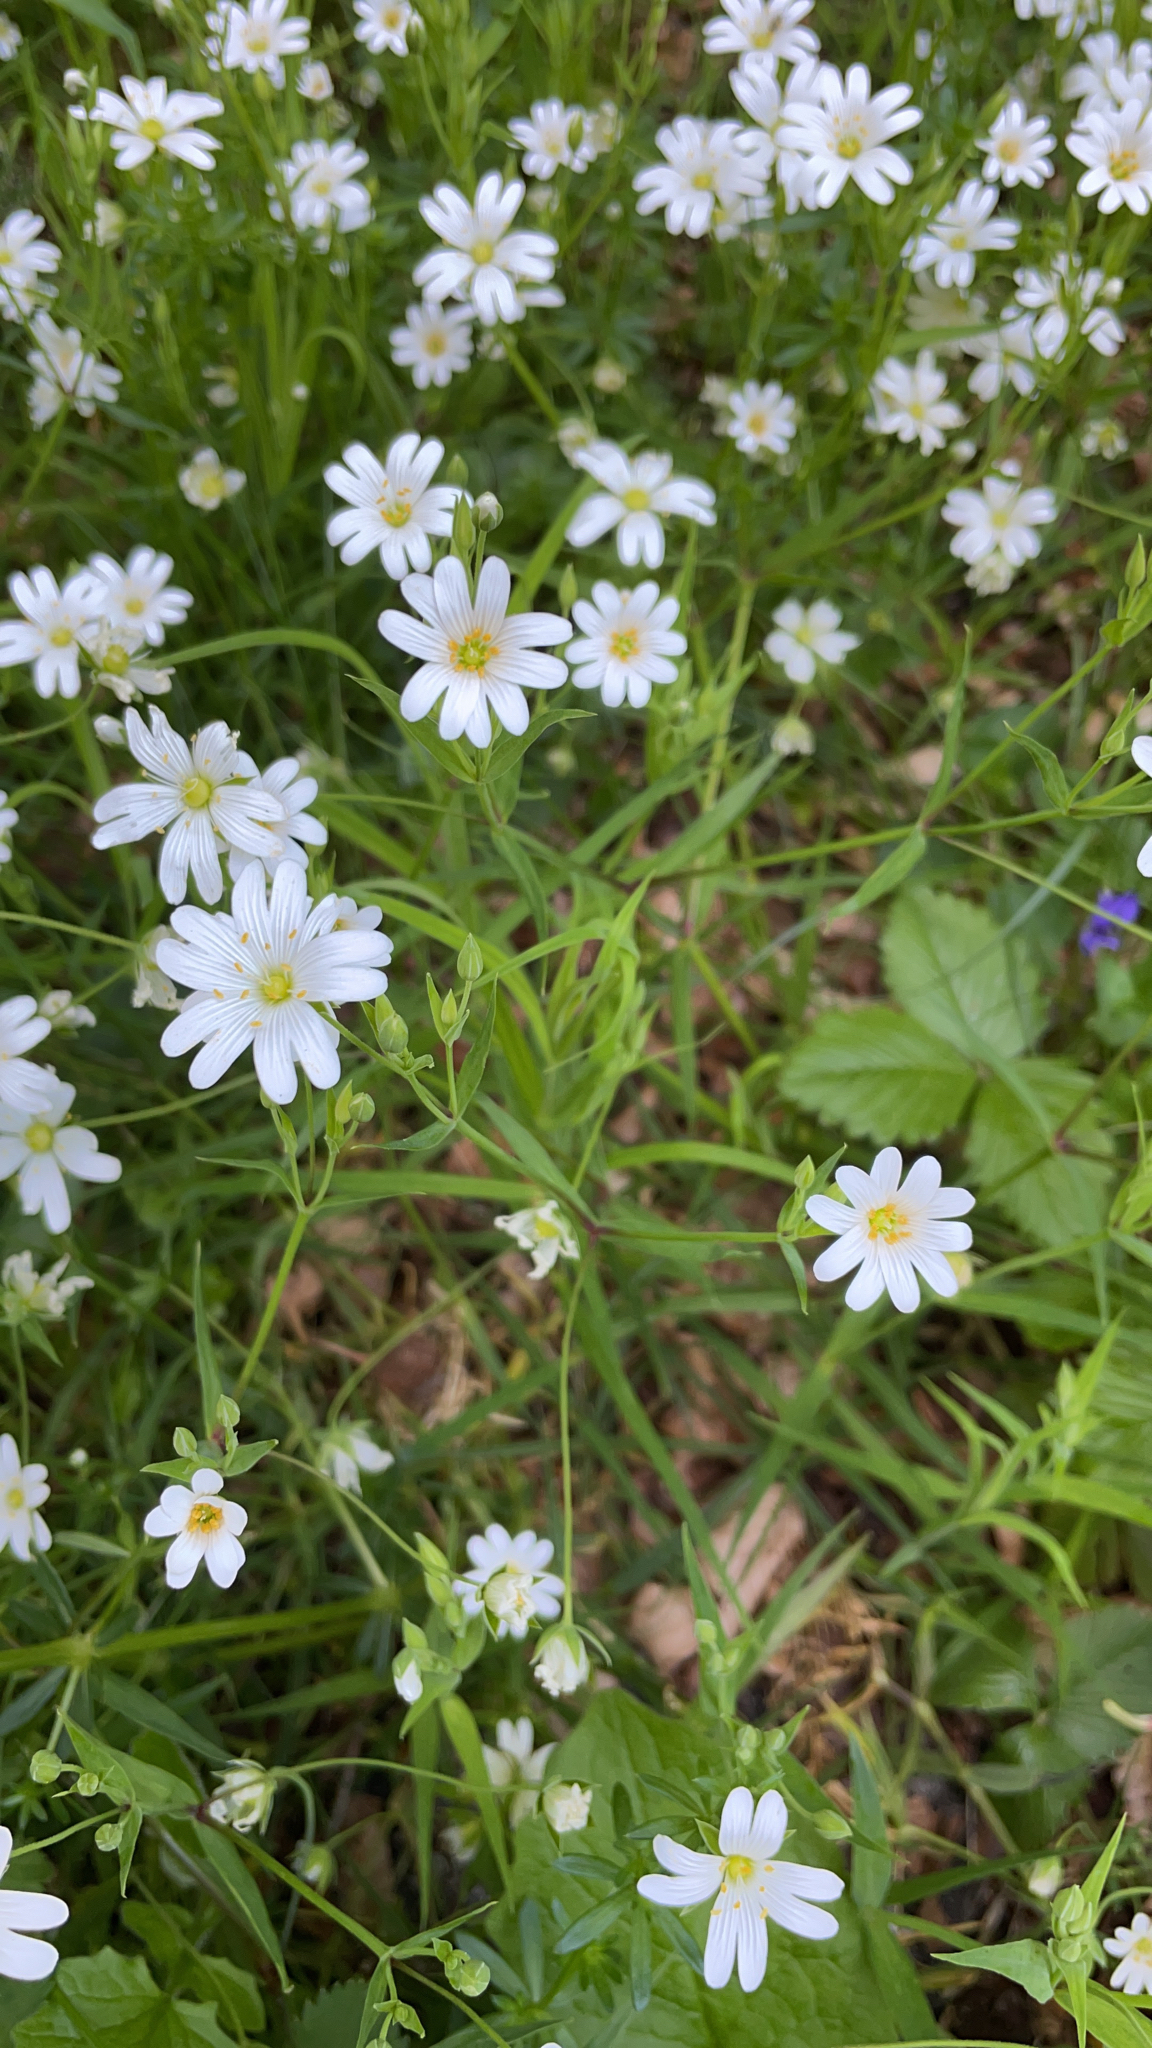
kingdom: Plantae
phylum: Tracheophyta
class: Magnoliopsida
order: Caryophyllales
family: Caryophyllaceae
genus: Rabelera
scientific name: Rabelera holostea
